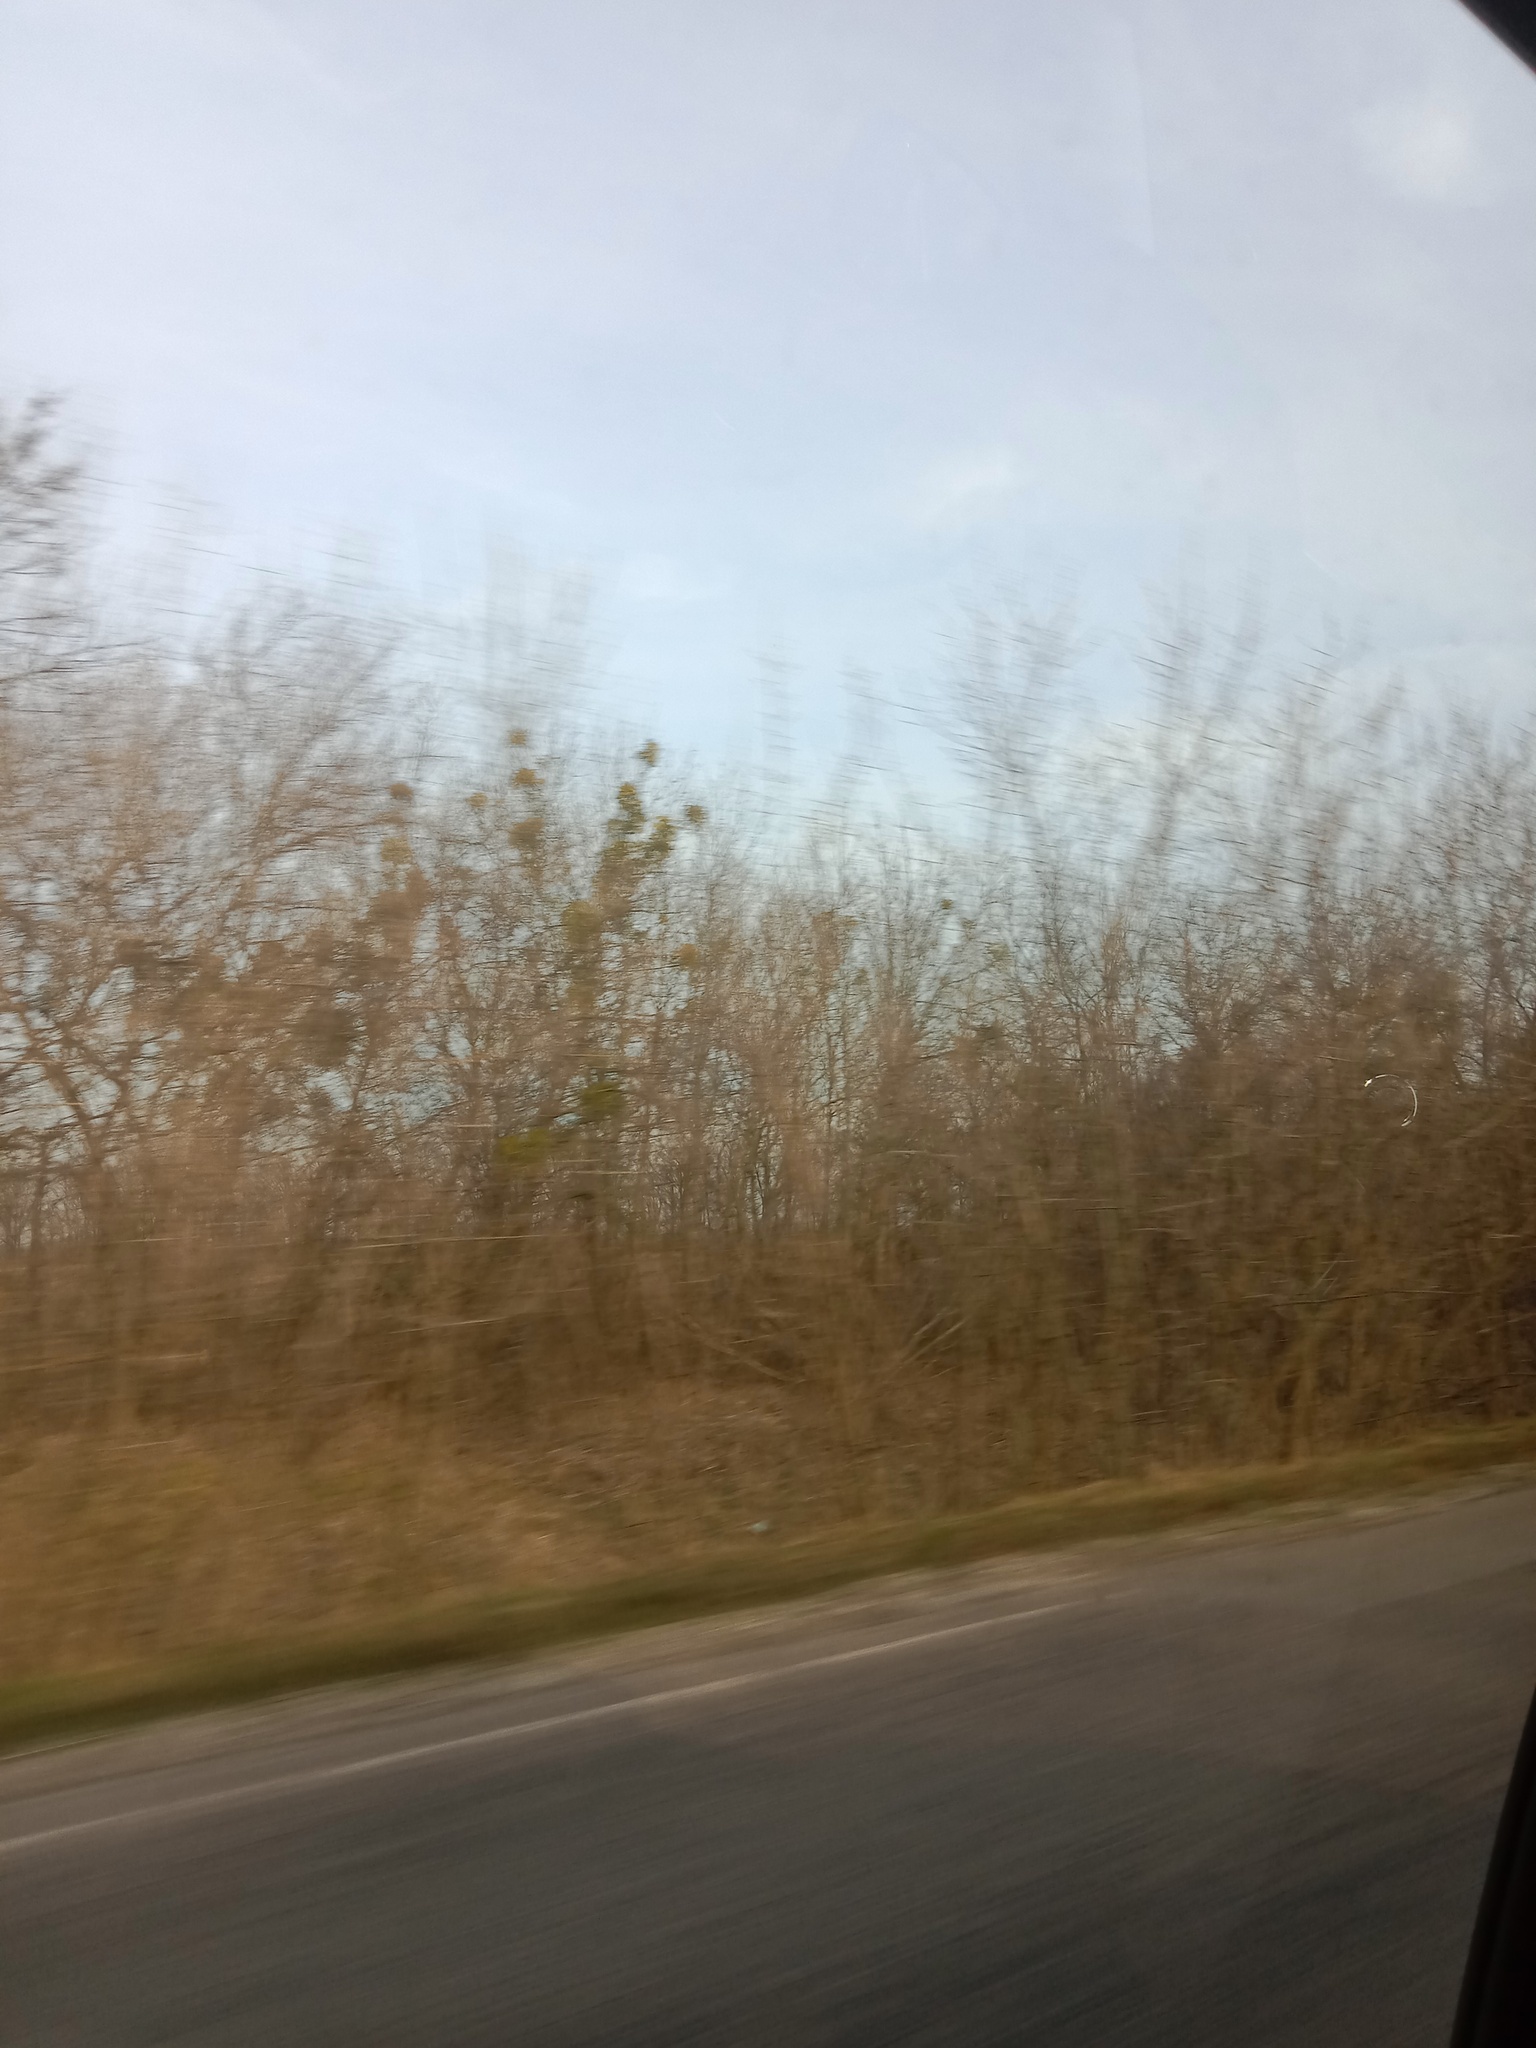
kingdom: Plantae
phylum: Tracheophyta
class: Magnoliopsida
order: Santalales
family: Viscaceae
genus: Viscum
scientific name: Viscum album
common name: Mistletoe
